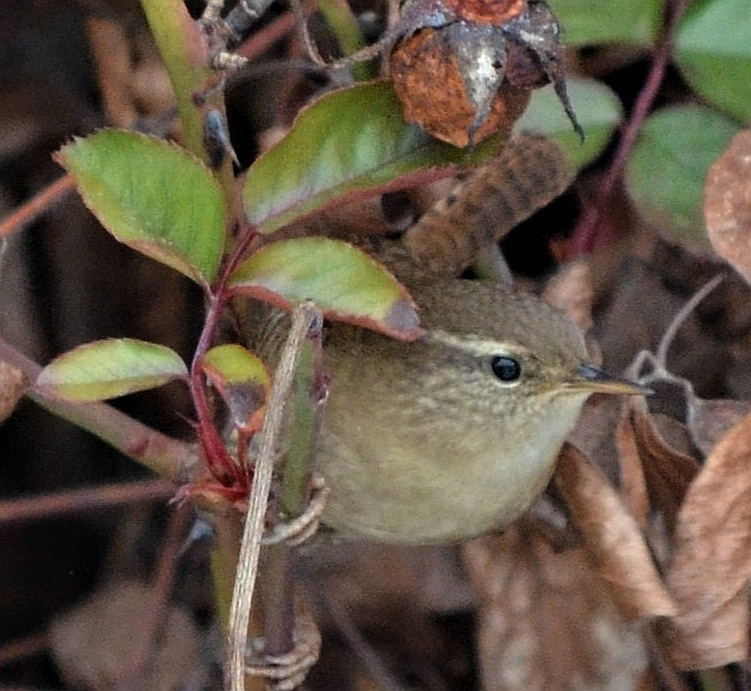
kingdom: Animalia
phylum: Chordata
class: Aves
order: Passeriformes
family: Troglodytidae
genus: Troglodytes
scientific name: Troglodytes troglodytes
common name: Eurasian wren
